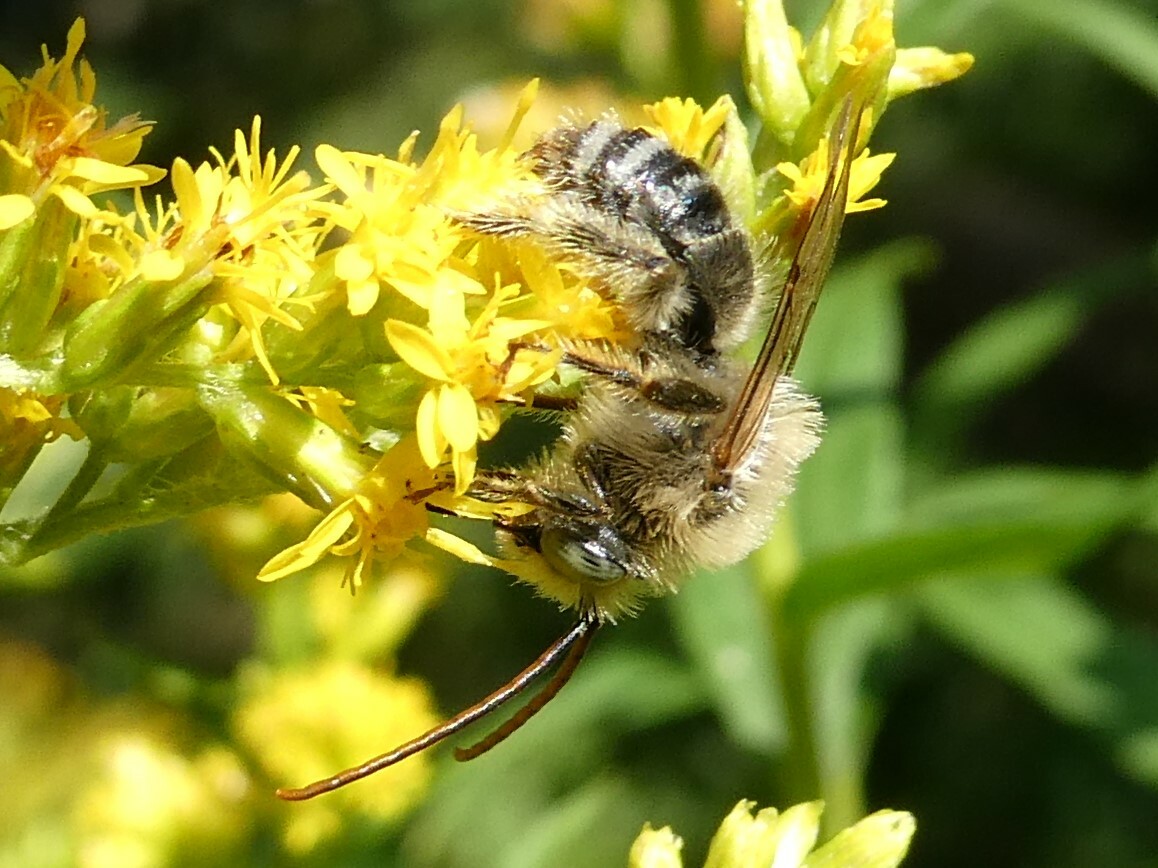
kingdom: Animalia
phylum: Arthropoda
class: Insecta
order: Hymenoptera
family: Apidae
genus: Melissodes
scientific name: Melissodes druriellus
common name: Drury's long-horned bee
